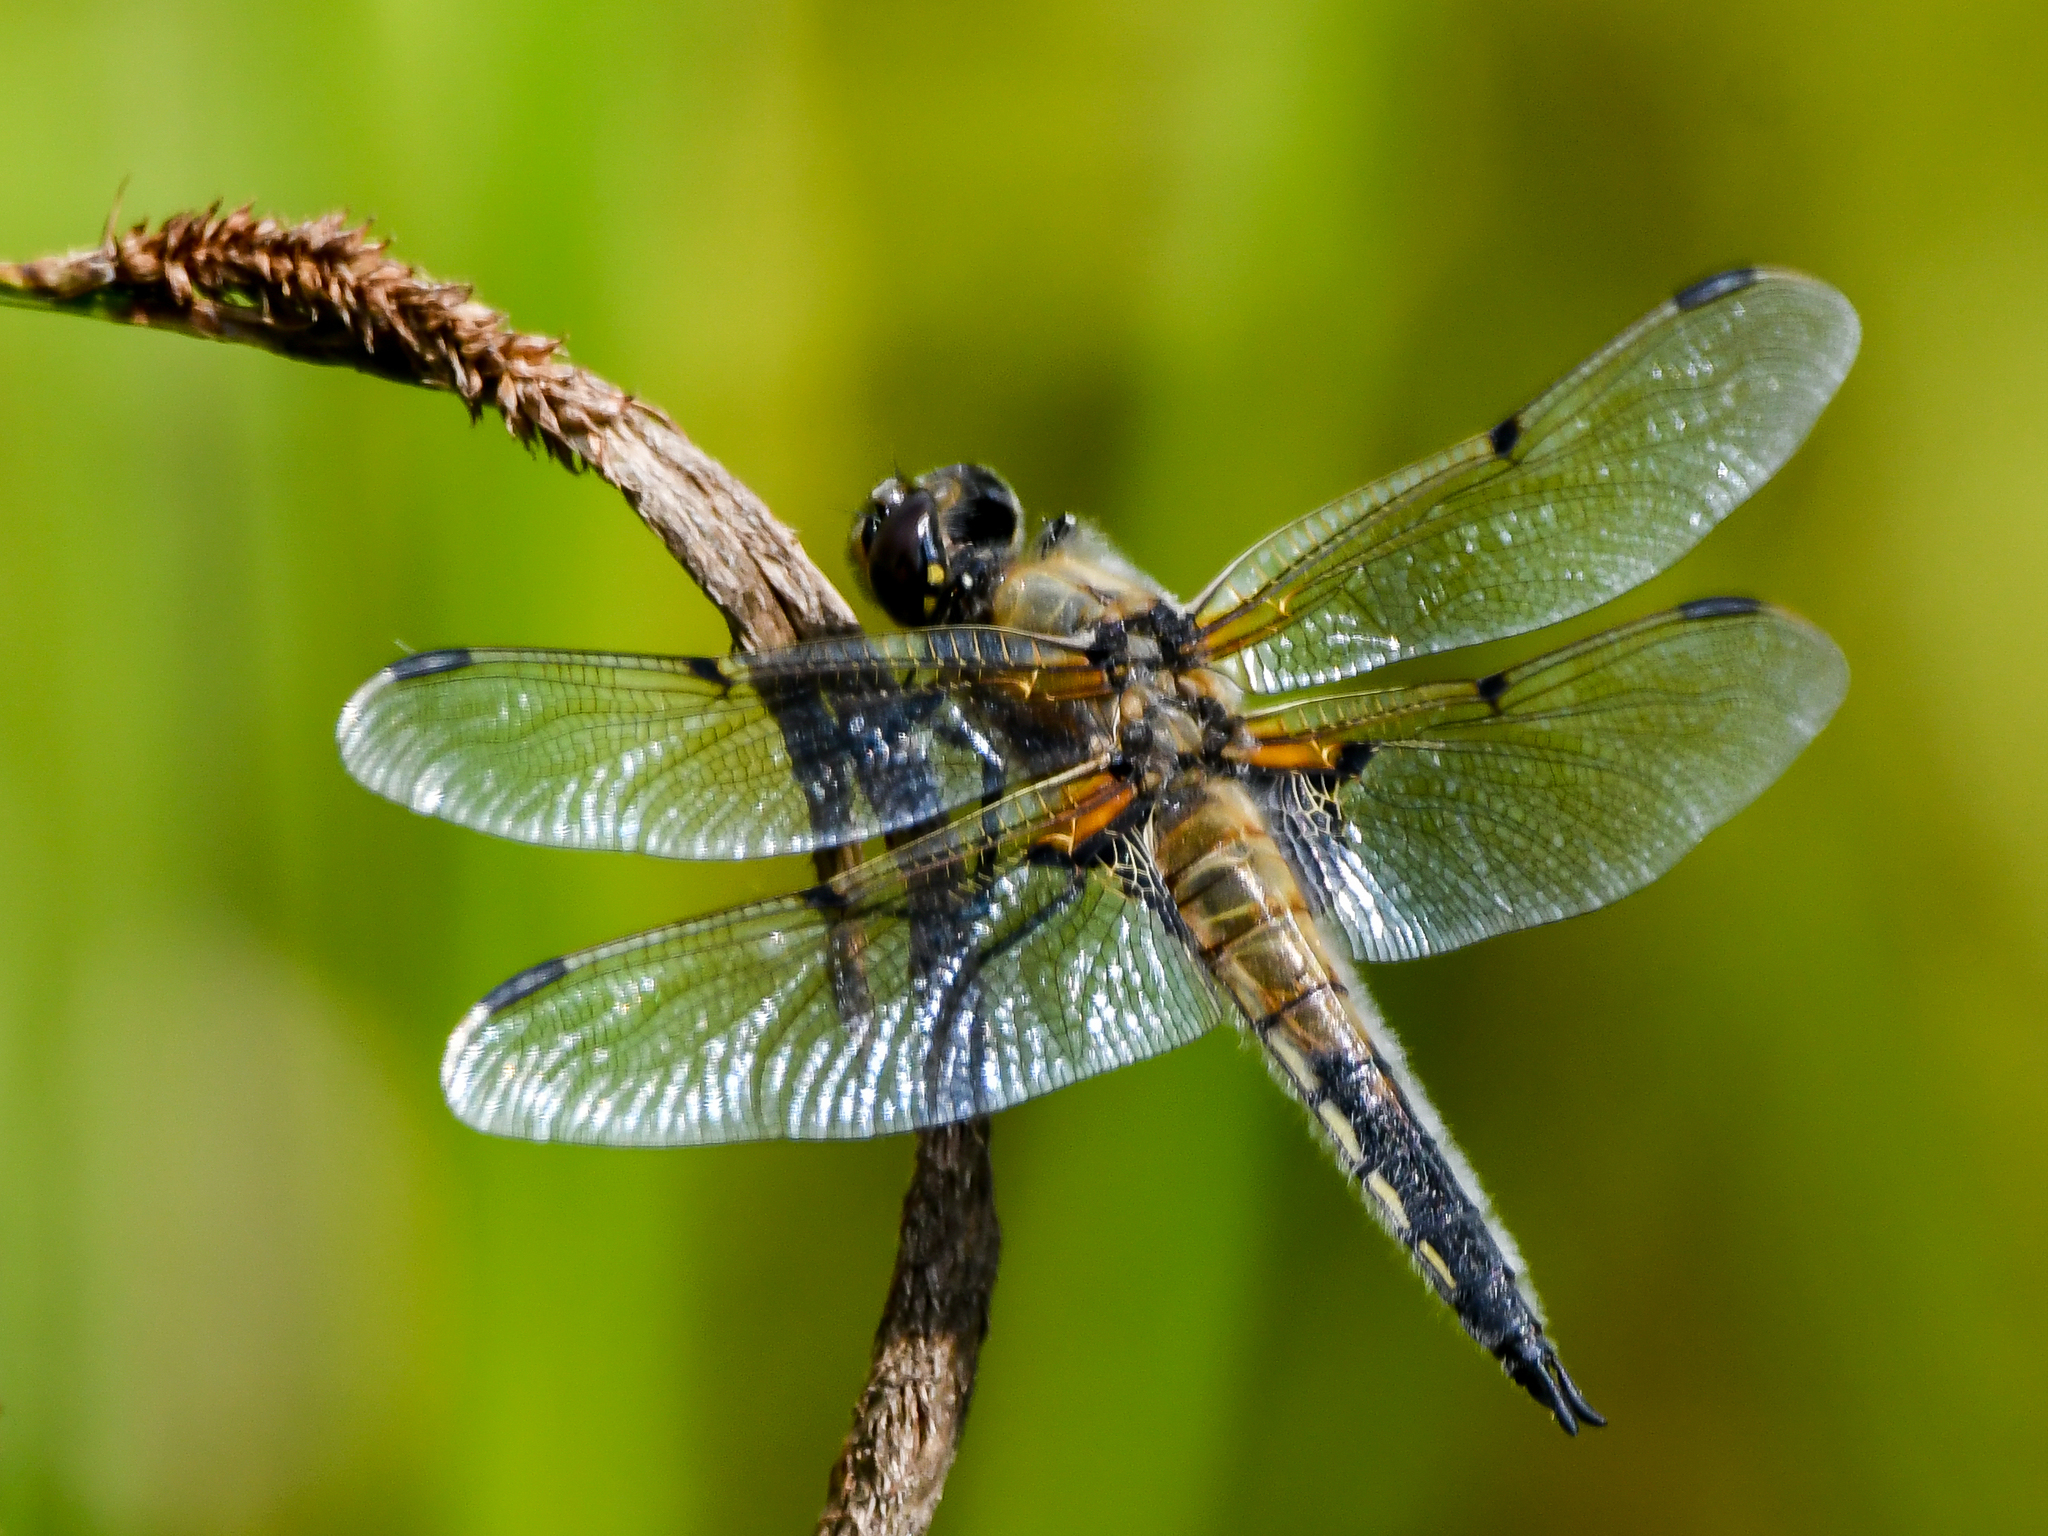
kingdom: Animalia
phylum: Arthropoda
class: Insecta
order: Odonata
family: Libellulidae
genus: Libellula
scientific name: Libellula quadrimaculata
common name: Four-spotted chaser
